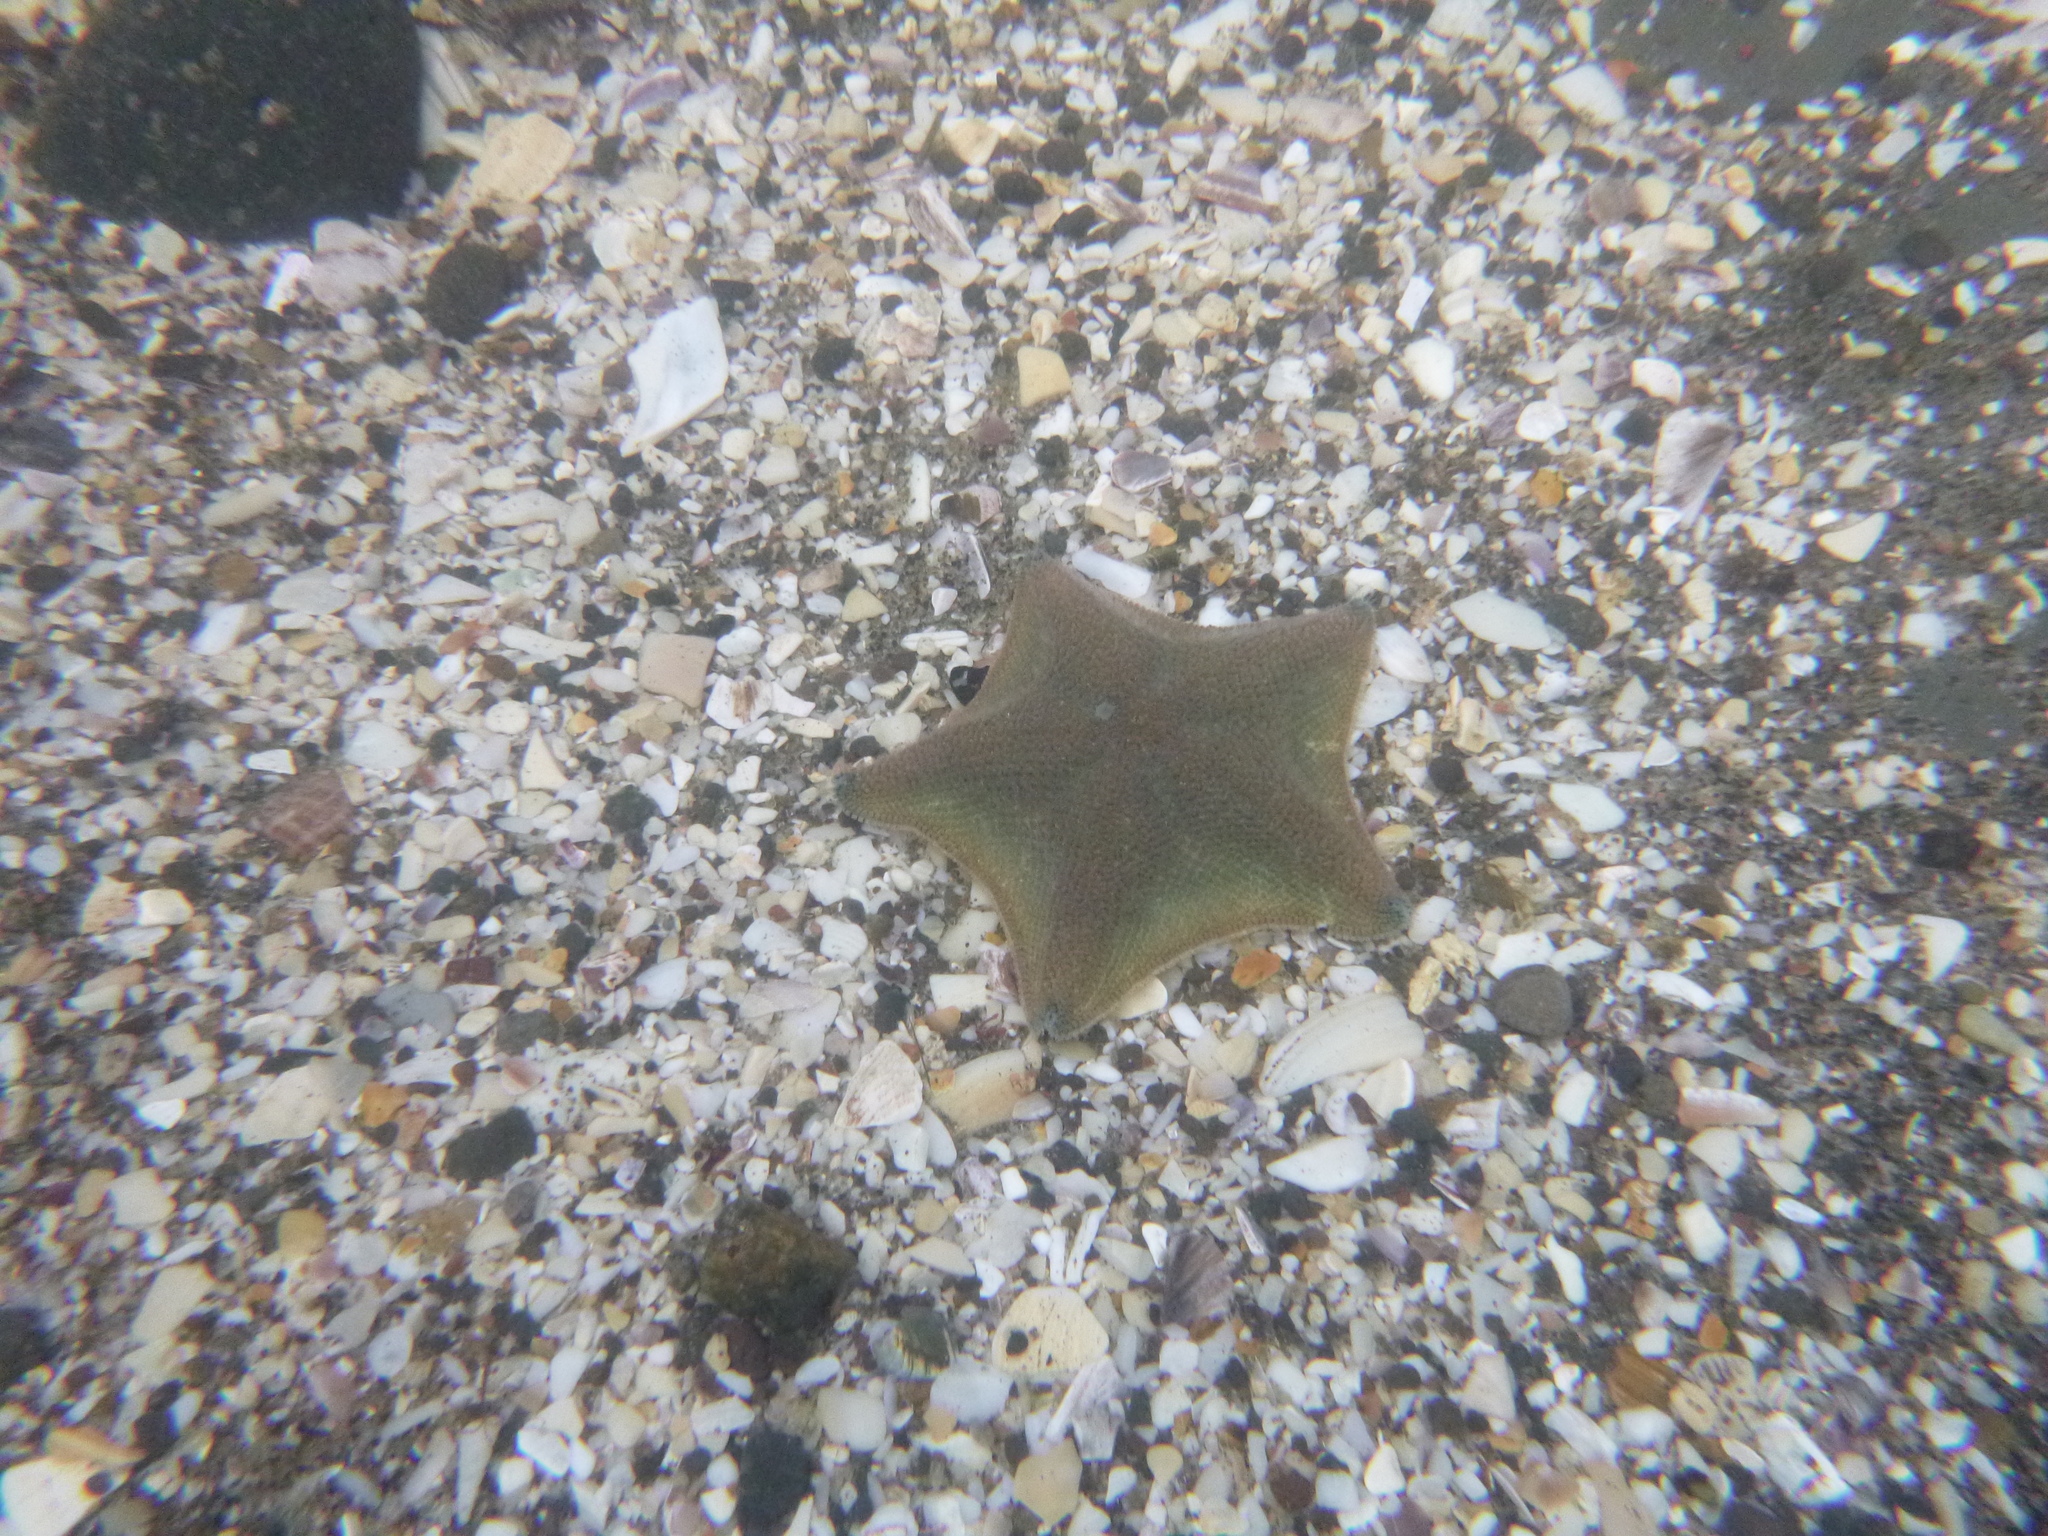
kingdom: Animalia
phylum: Echinodermata
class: Asteroidea
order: Valvatida
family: Asterinidae
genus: Patiriella
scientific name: Patiriella regularis
